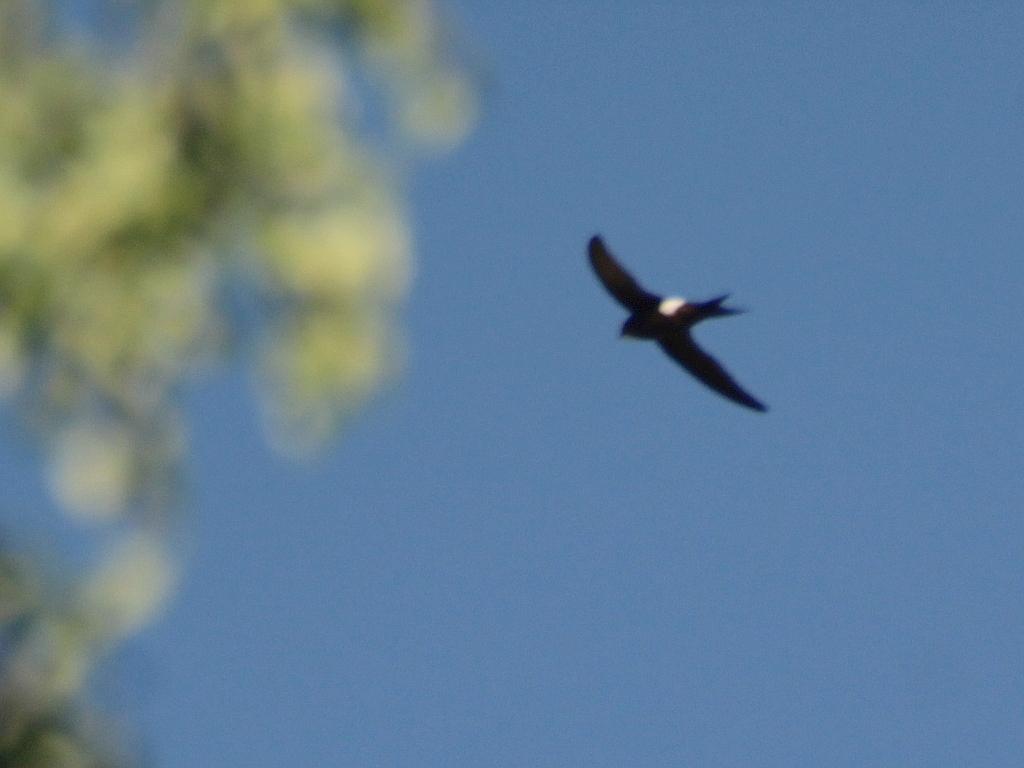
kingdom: Animalia
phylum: Chordata
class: Aves
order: Apodiformes
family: Apodidae
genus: Apus
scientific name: Apus pacificus
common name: Pacific swift
